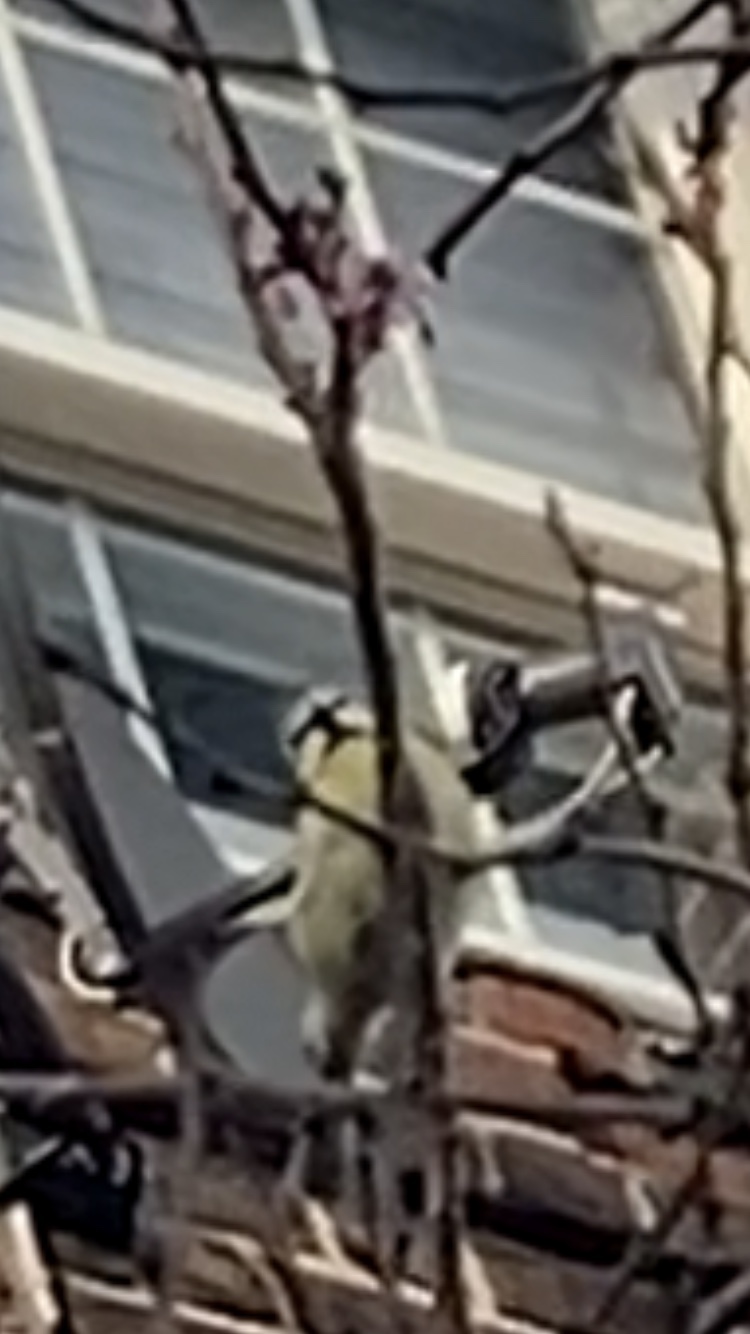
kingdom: Animalia
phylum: Chordata
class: Aves
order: Passeriformes
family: Paridae
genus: Cyanistes
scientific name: Cyanistes caeruleus
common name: Eurasian blue tit
